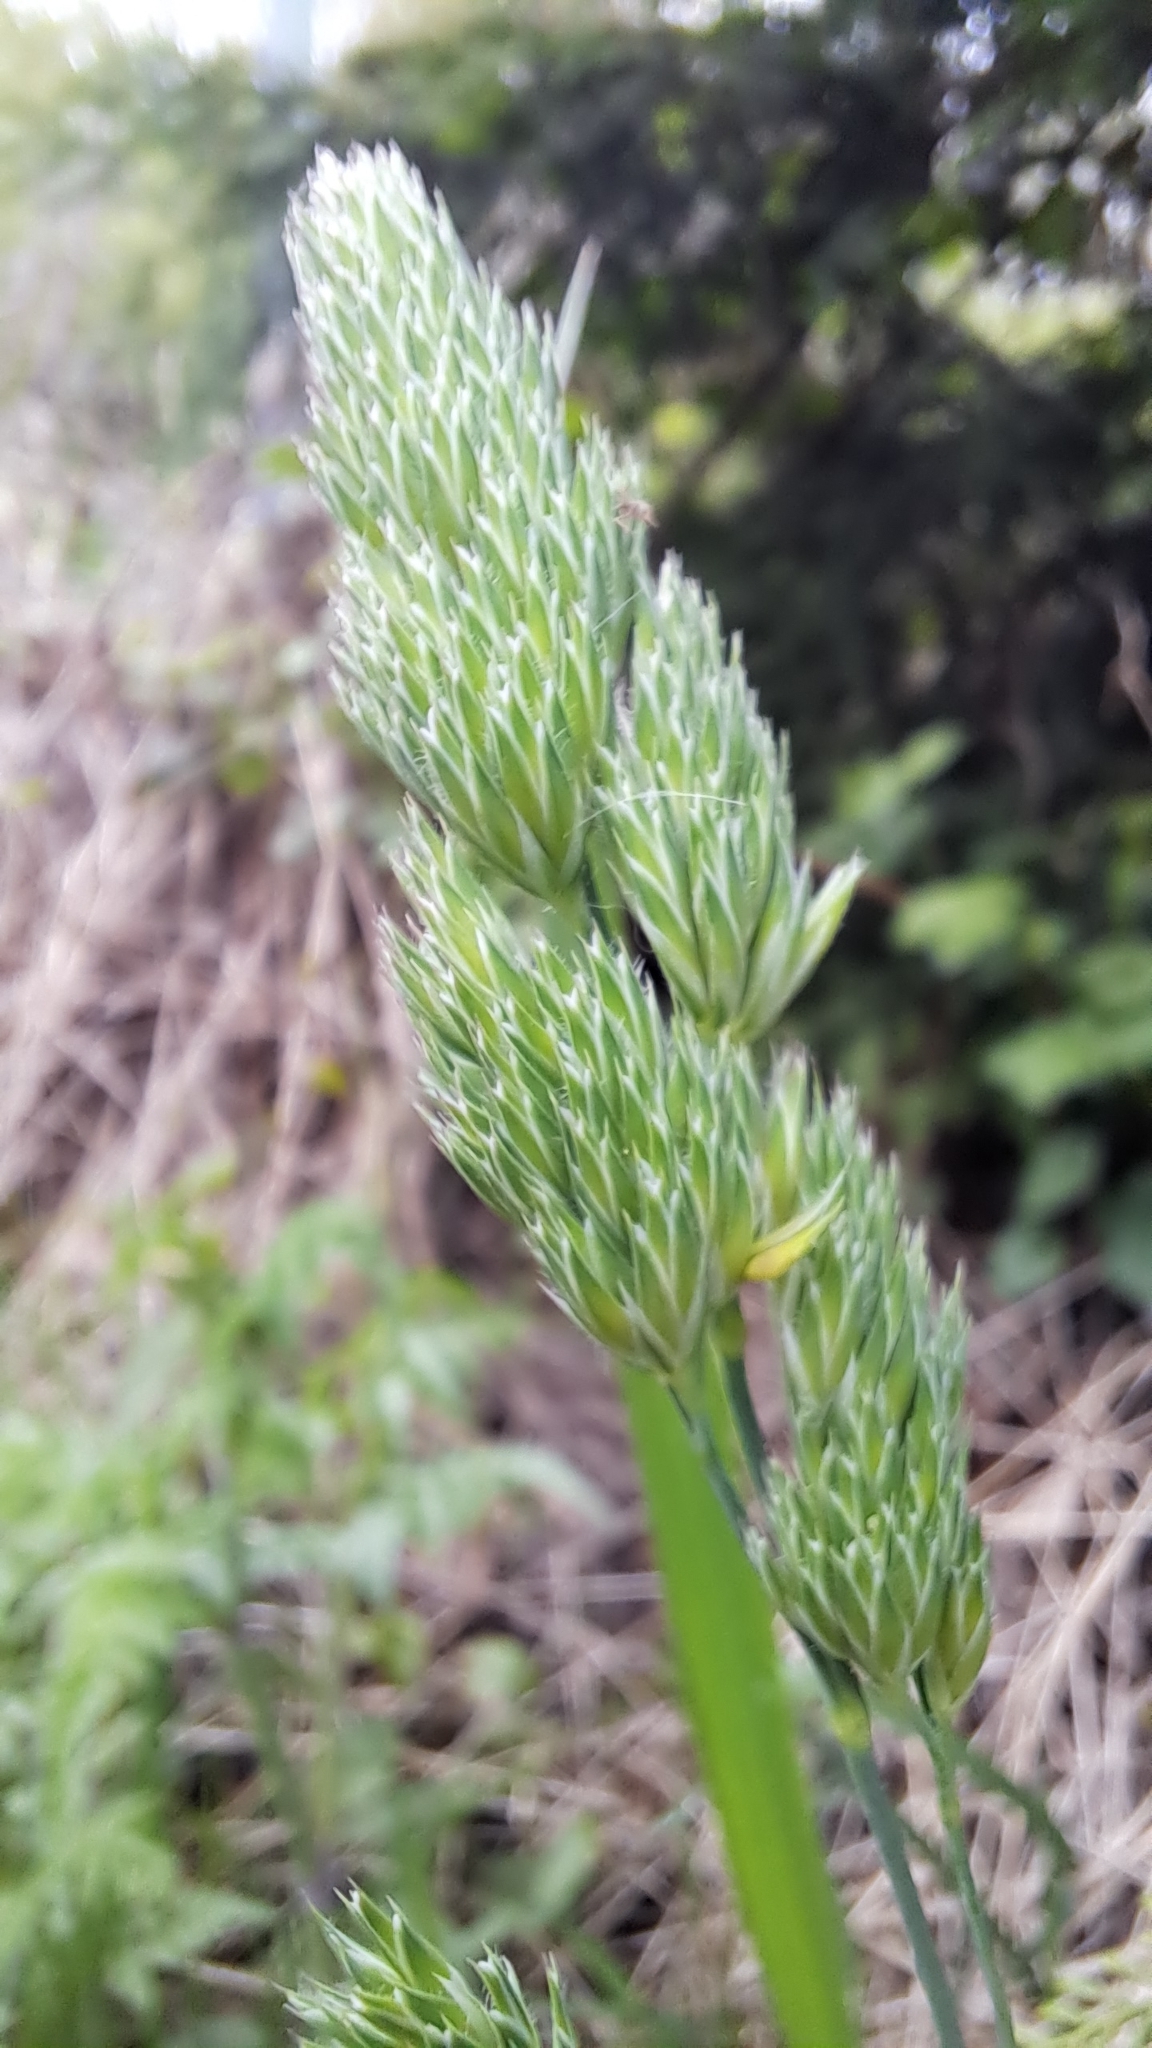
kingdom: Plantae
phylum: Tracheophyta
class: Liliopsida
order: Poales
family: Poaceae
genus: Dactylis
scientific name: Dactylis glomerata
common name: Orchardgrass
